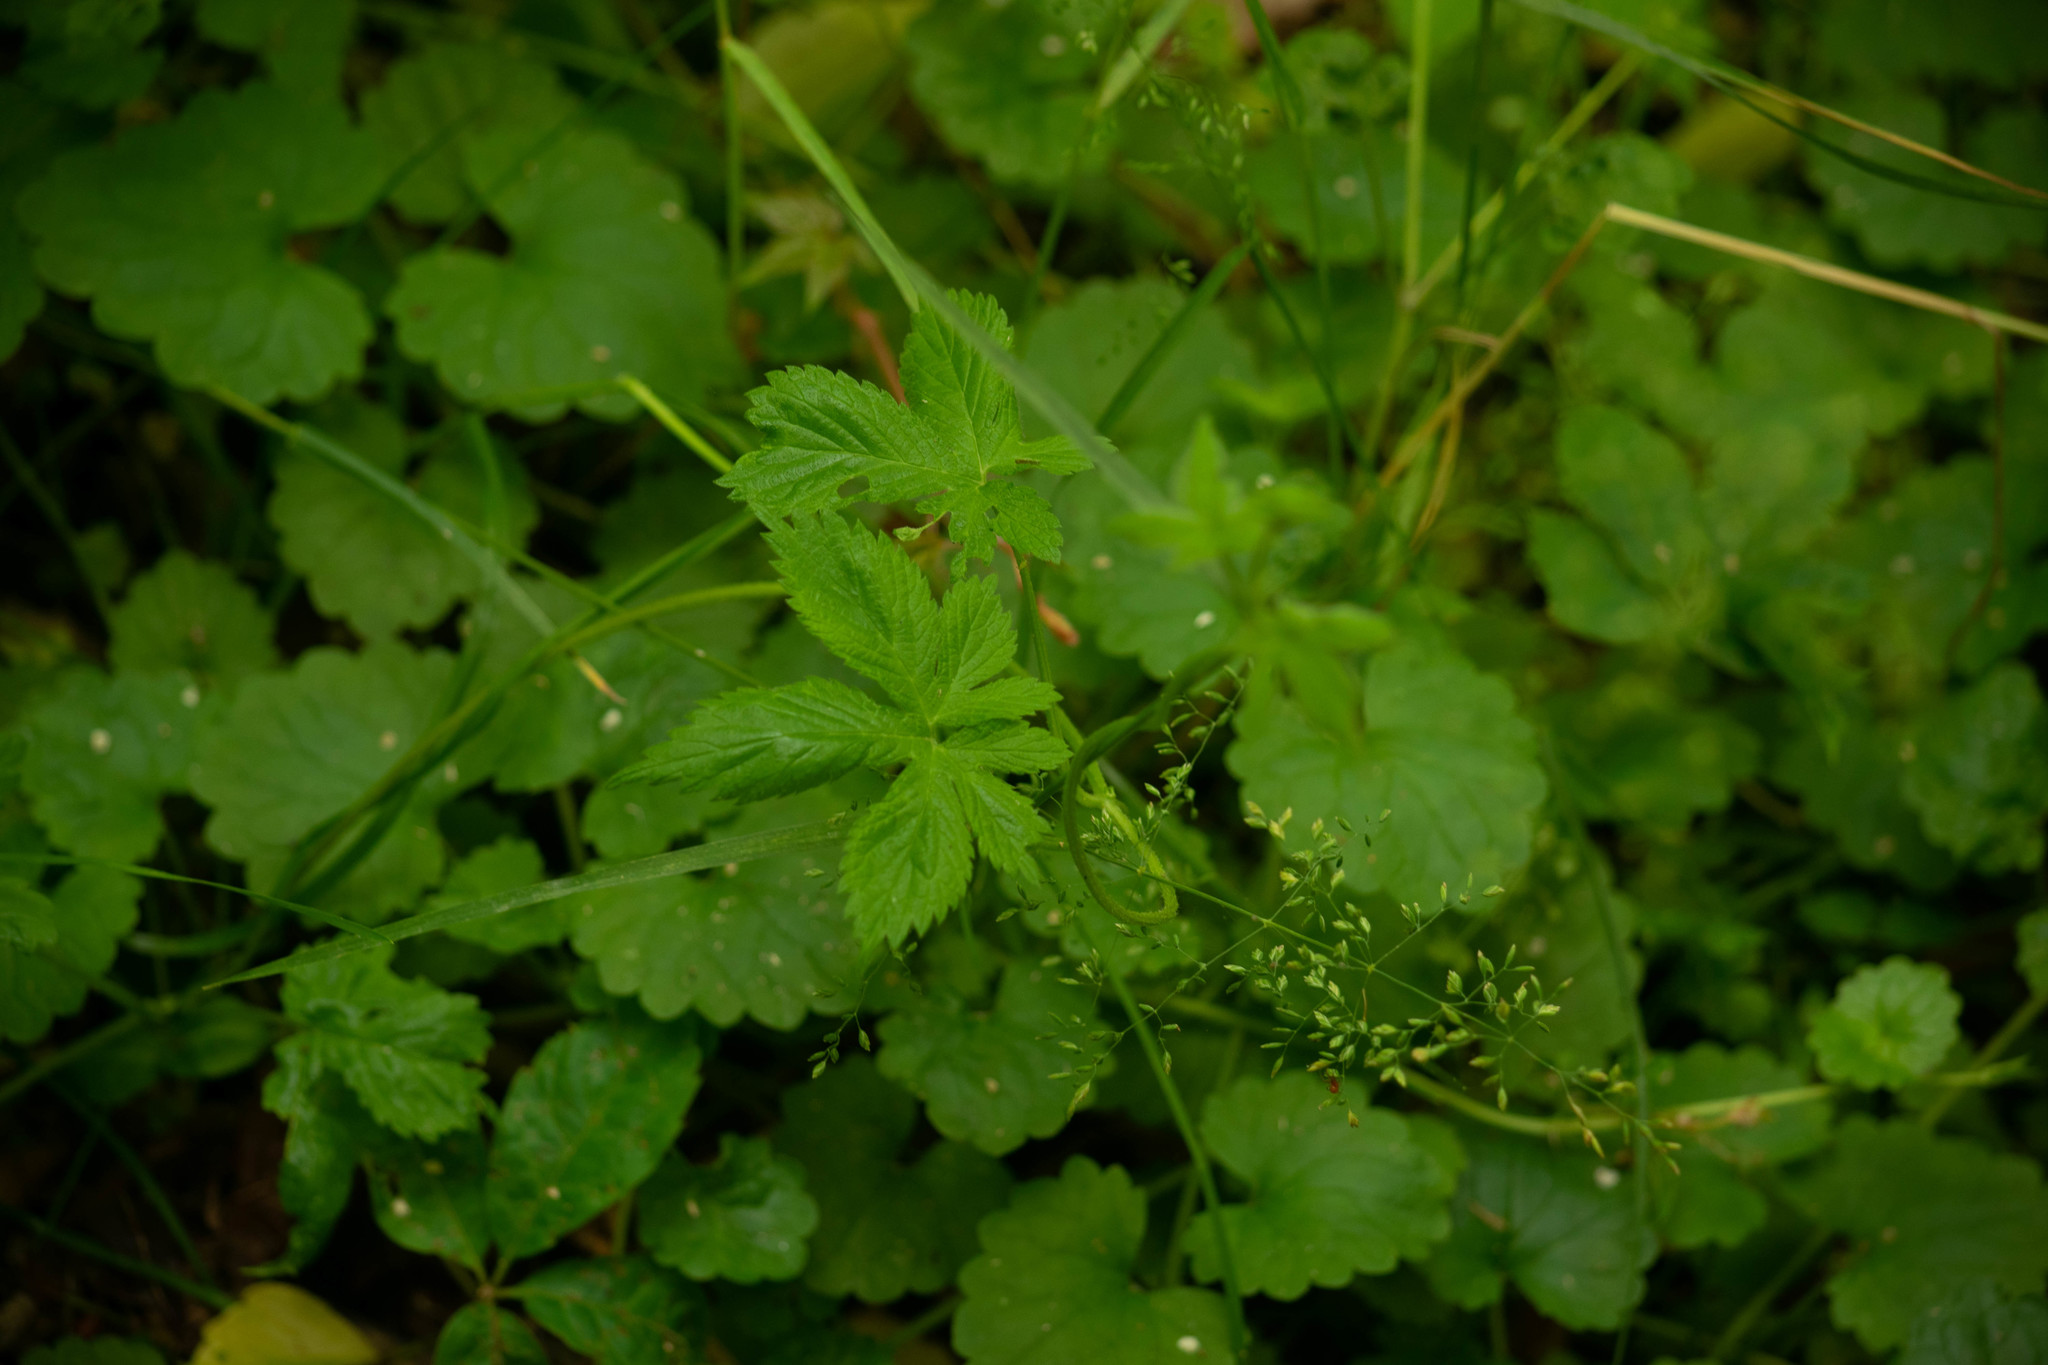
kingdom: Plantae
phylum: Tracheophyta
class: Magnoliopsida
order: Rosales
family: Cannabaceae
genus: Humulus
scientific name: Humulus scandens
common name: Japanese hop
